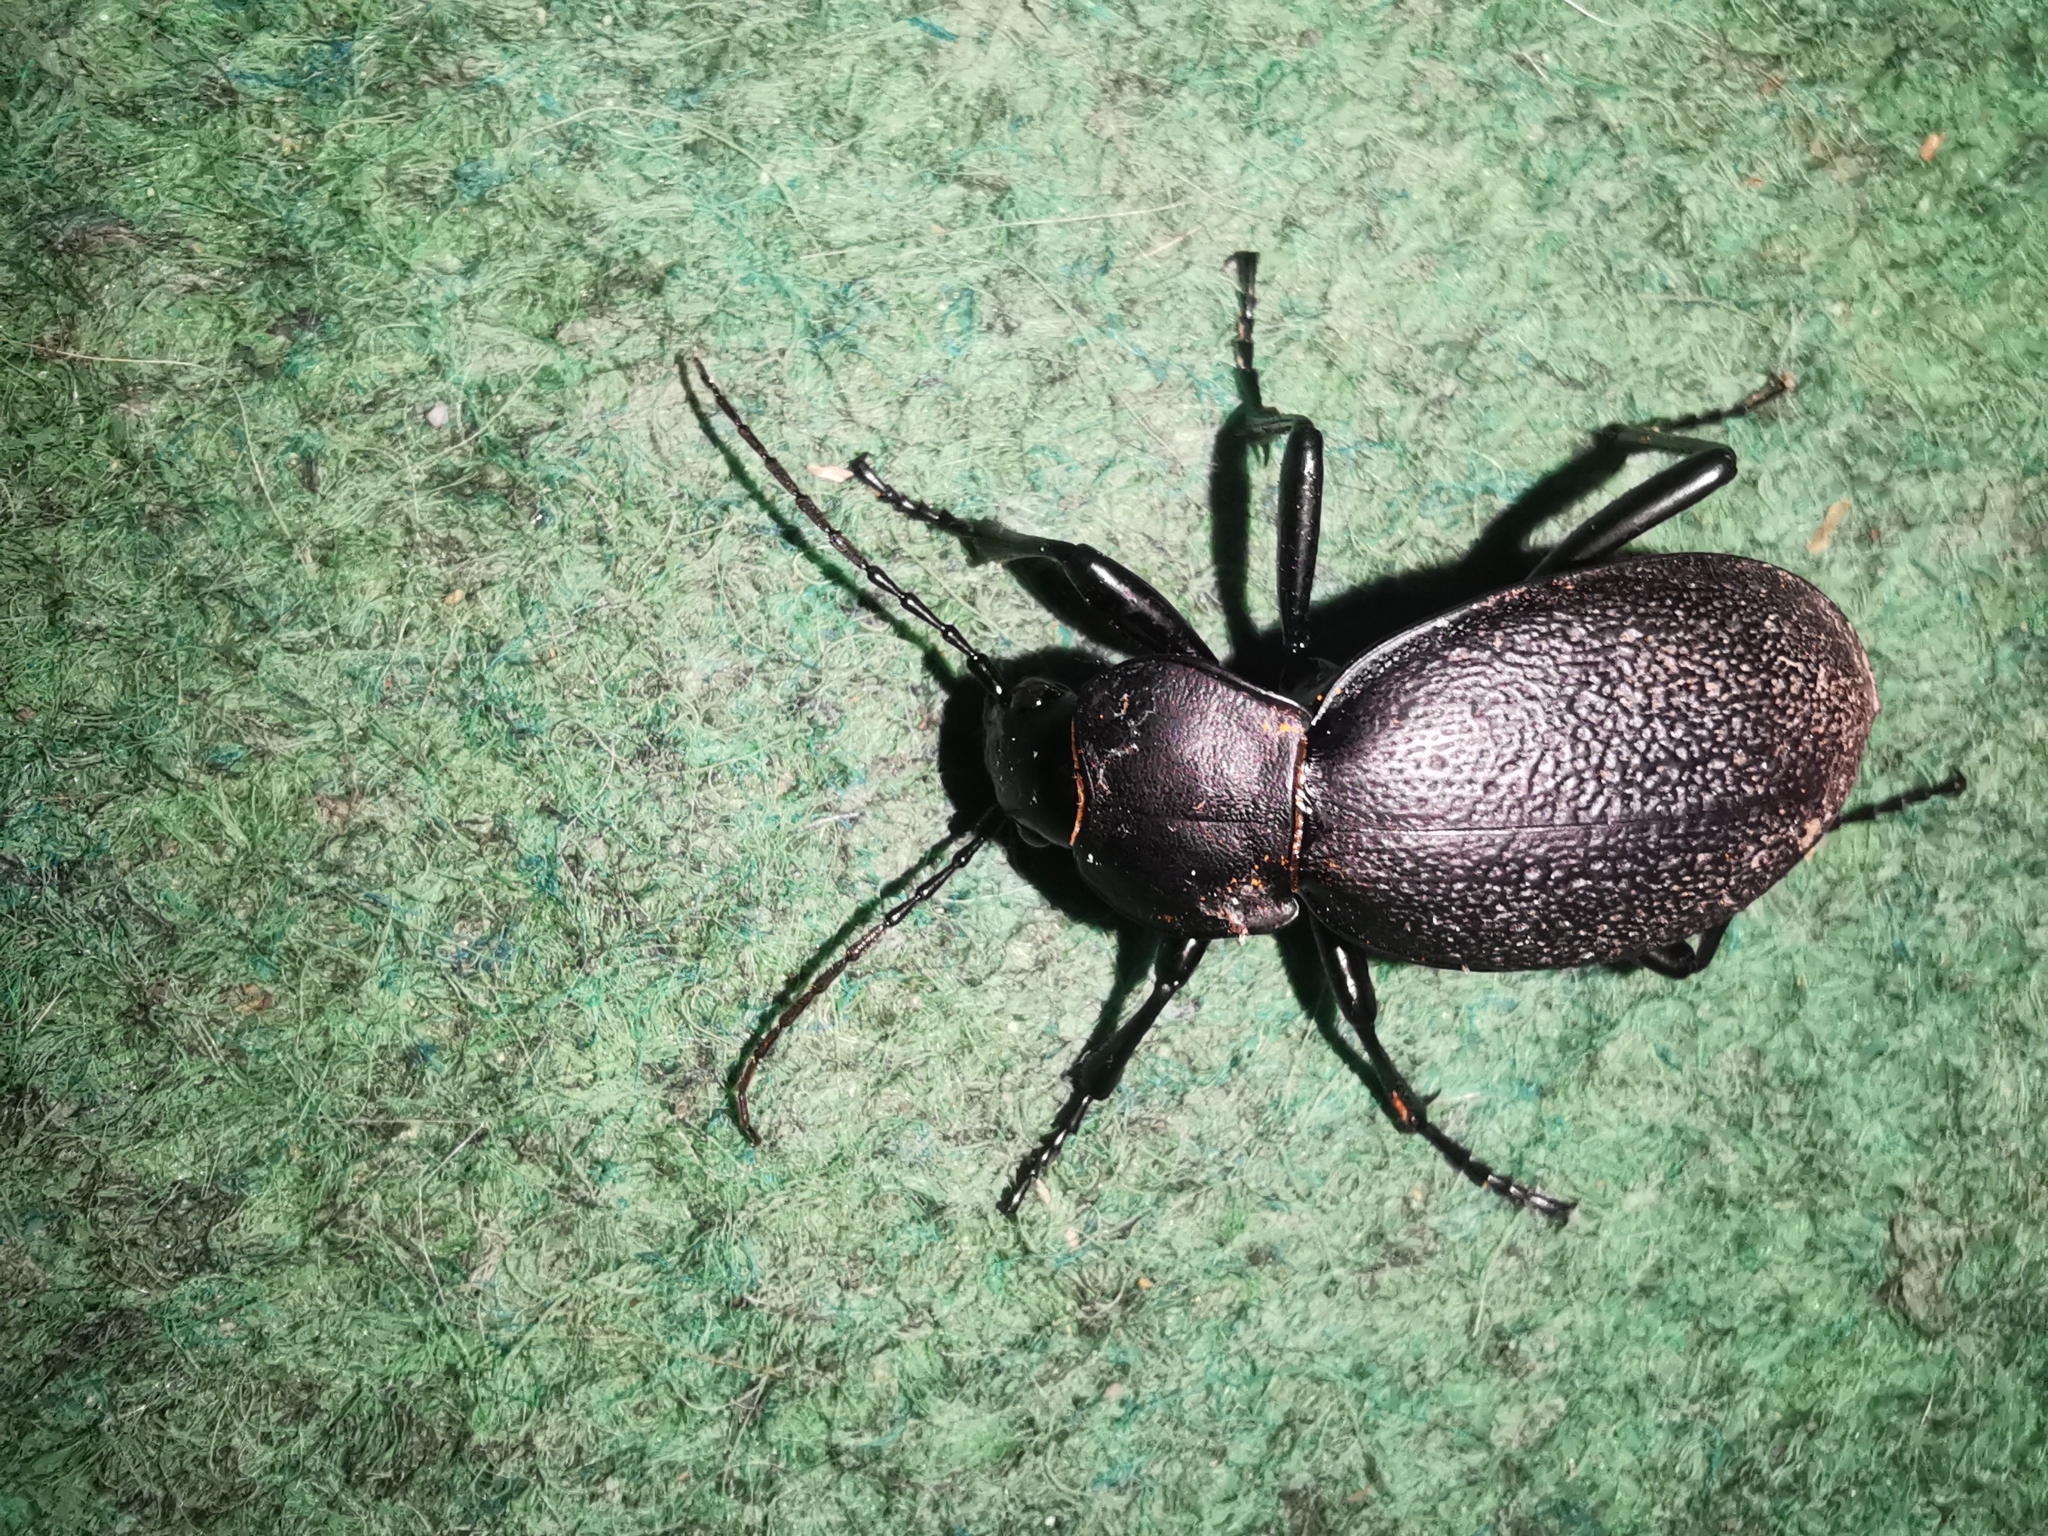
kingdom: Animalia
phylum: Arthropoda
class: Insecta
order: Coleoptera
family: Carabidae
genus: Carabus
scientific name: Carabus coriaceus
